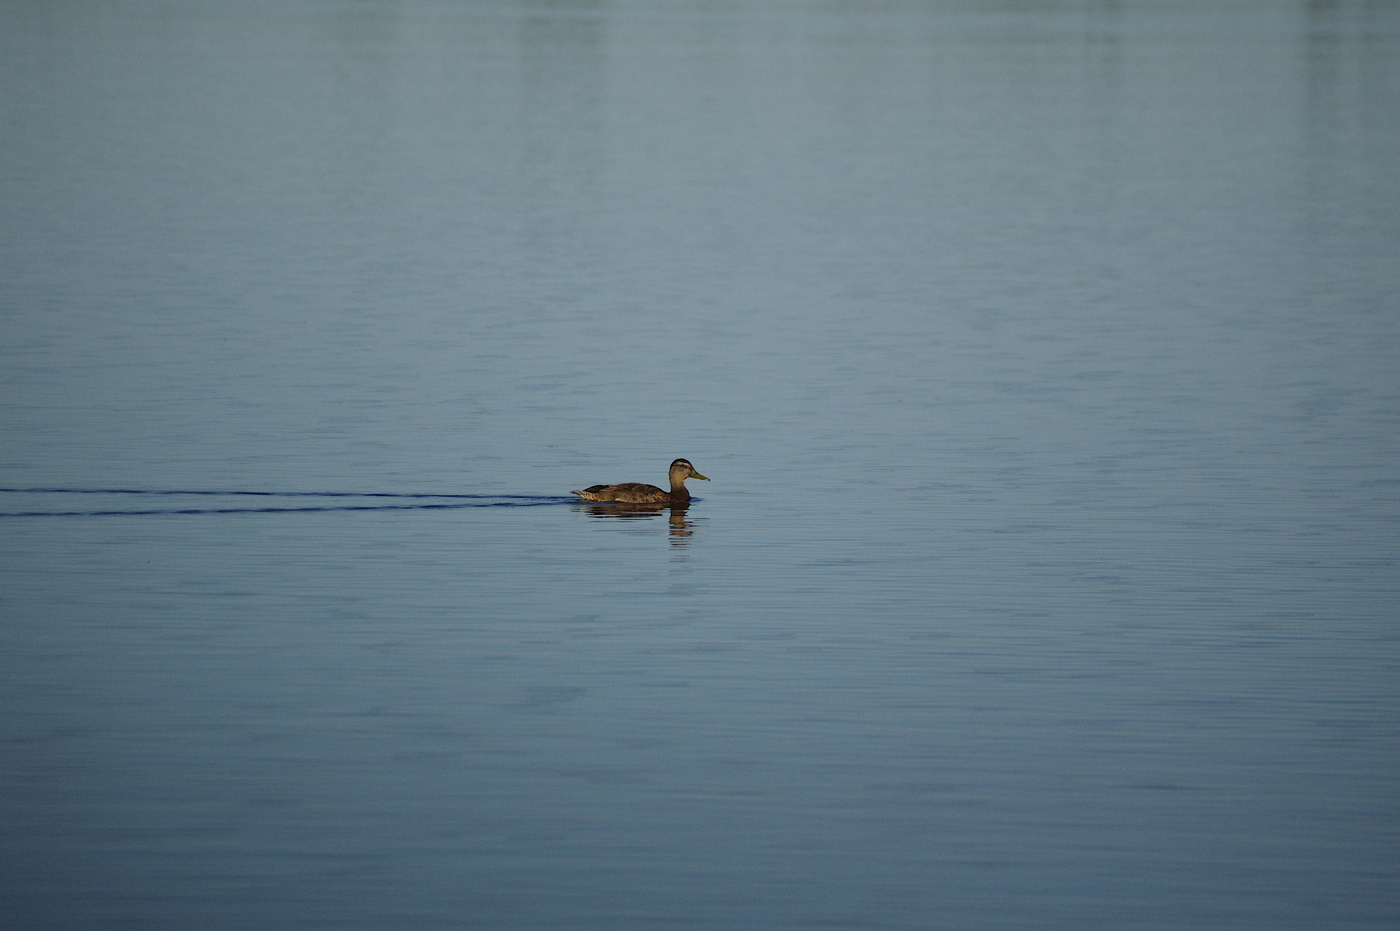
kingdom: Animalia
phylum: Chordata
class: Aves
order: Anseriformes
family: Anatidae
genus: Anas
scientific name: Anas platyrhynchos
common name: Mallard
